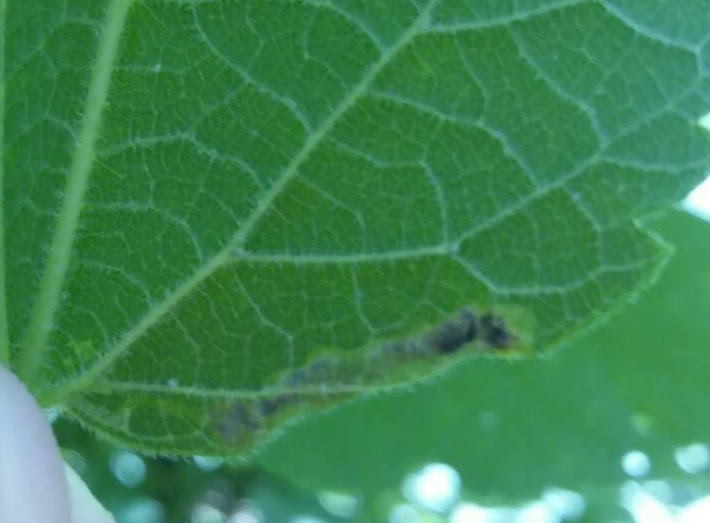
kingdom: Animalia
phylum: Arthropoda
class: Insecta
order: Lepidoptera
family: Gracillariidae
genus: Phyllonorycter
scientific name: Phyllonorycter celtisella
